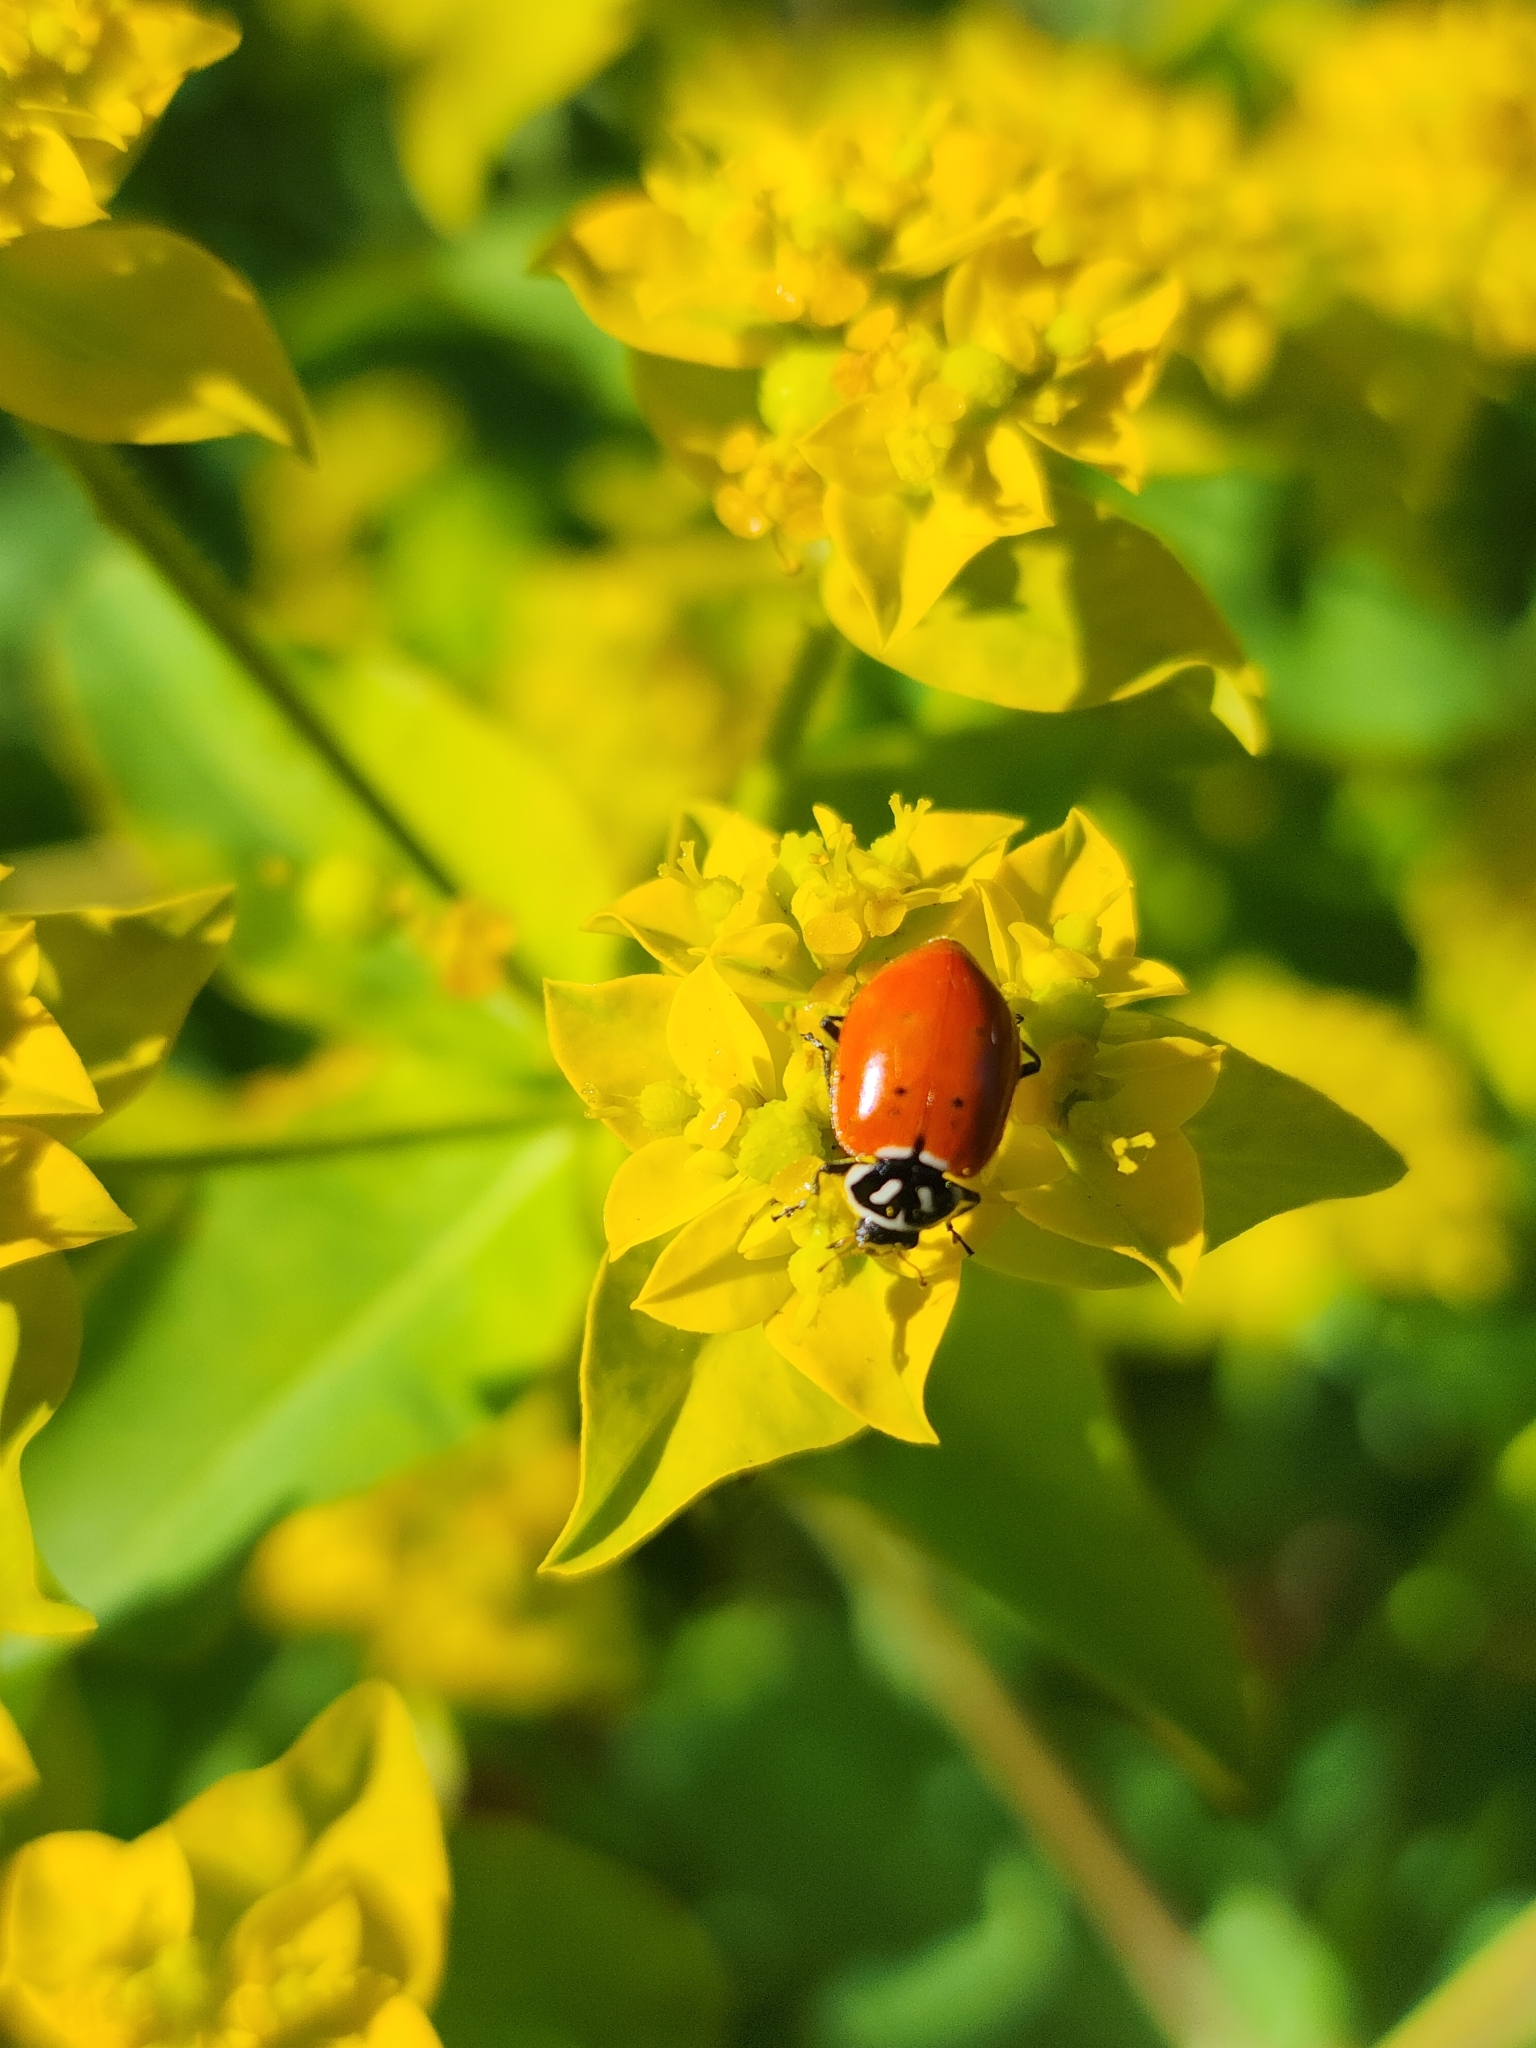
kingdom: Animalia
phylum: Arthropoda
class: Insecta
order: Coleoptera
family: Coccinellidae
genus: Hippodamia
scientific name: Hippodamia convergens
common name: Convergent lady beetle
